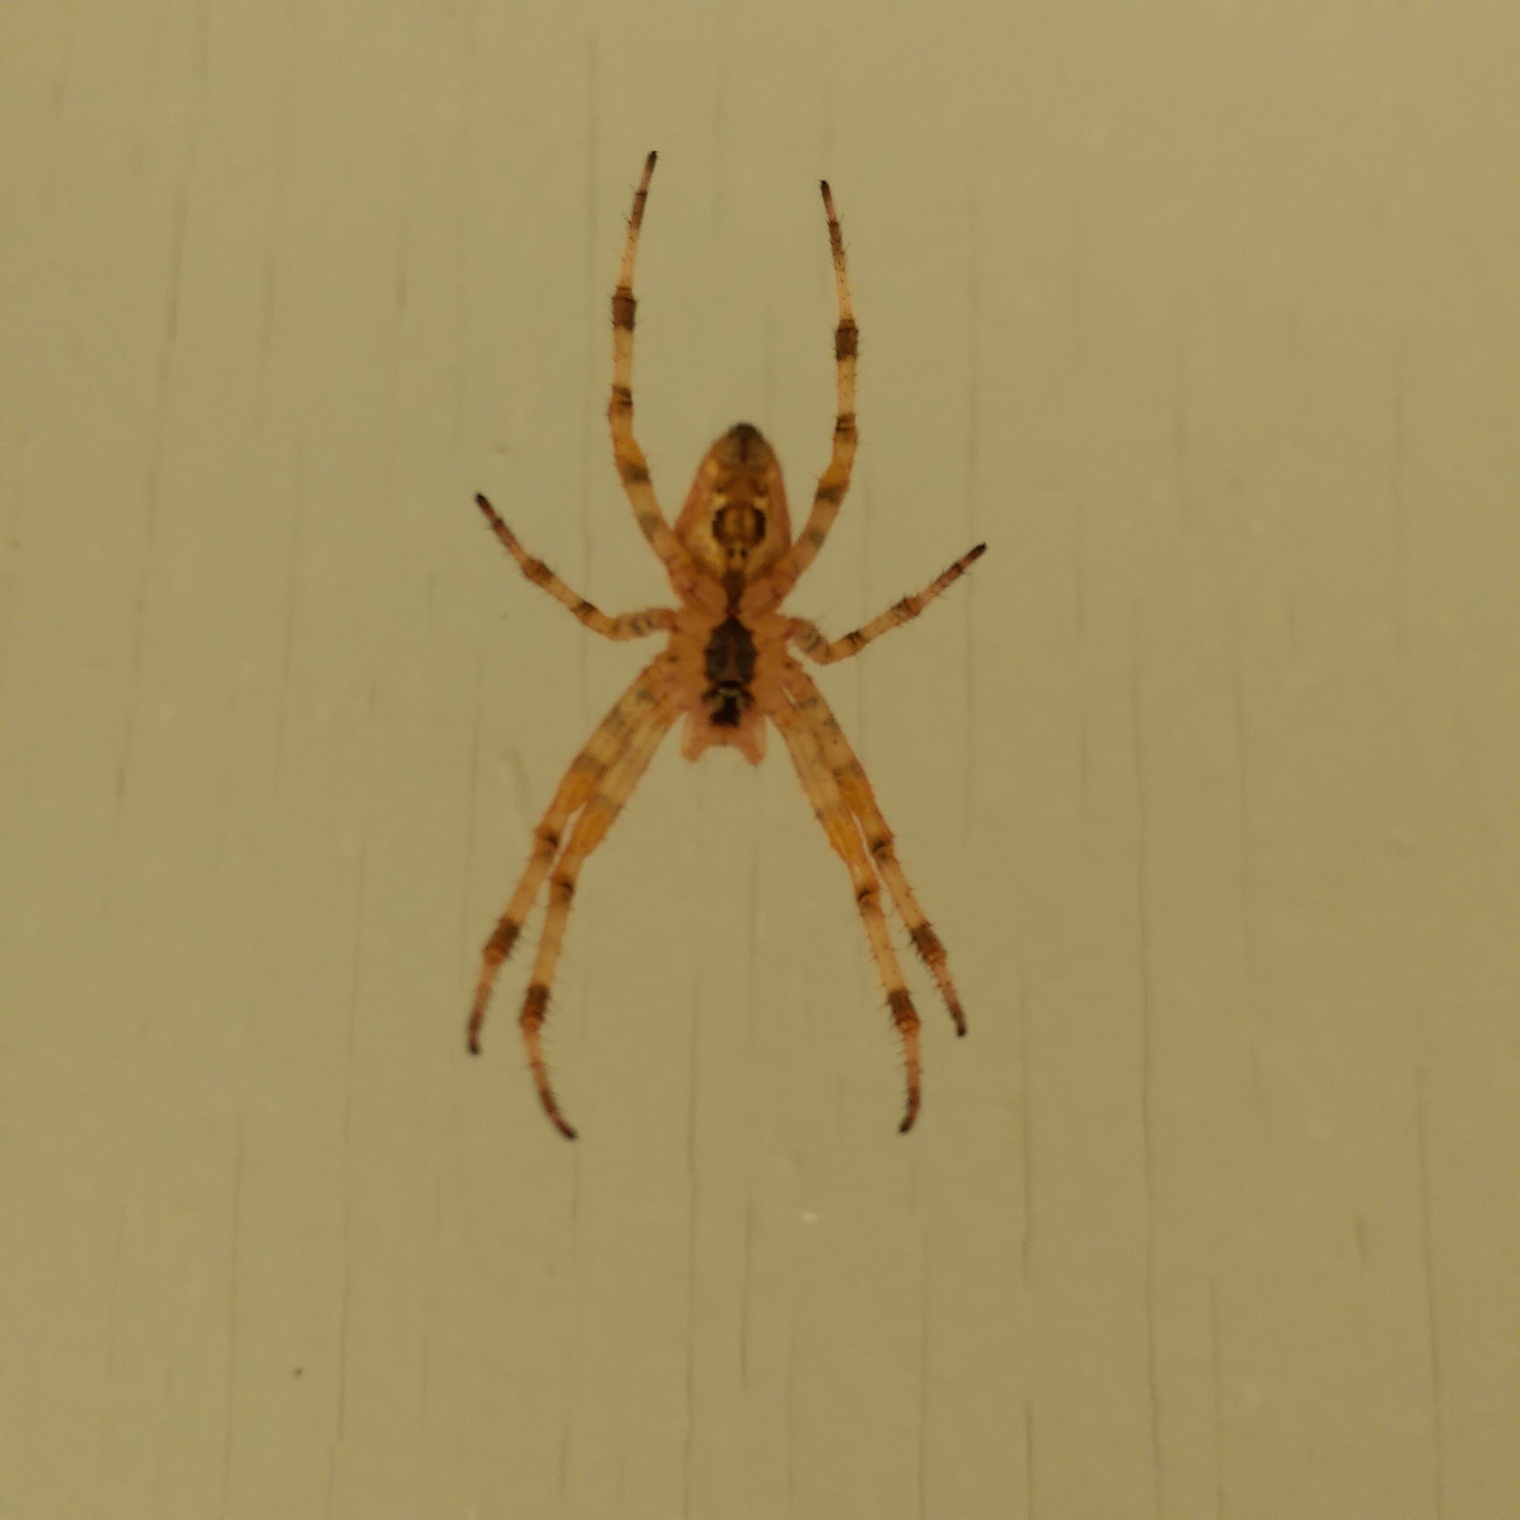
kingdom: Animalia
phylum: Arthropoda
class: Arachnida
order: Araneae
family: Araneidae
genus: Araneus
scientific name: Araneus diadematus
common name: Cross orbweaver
